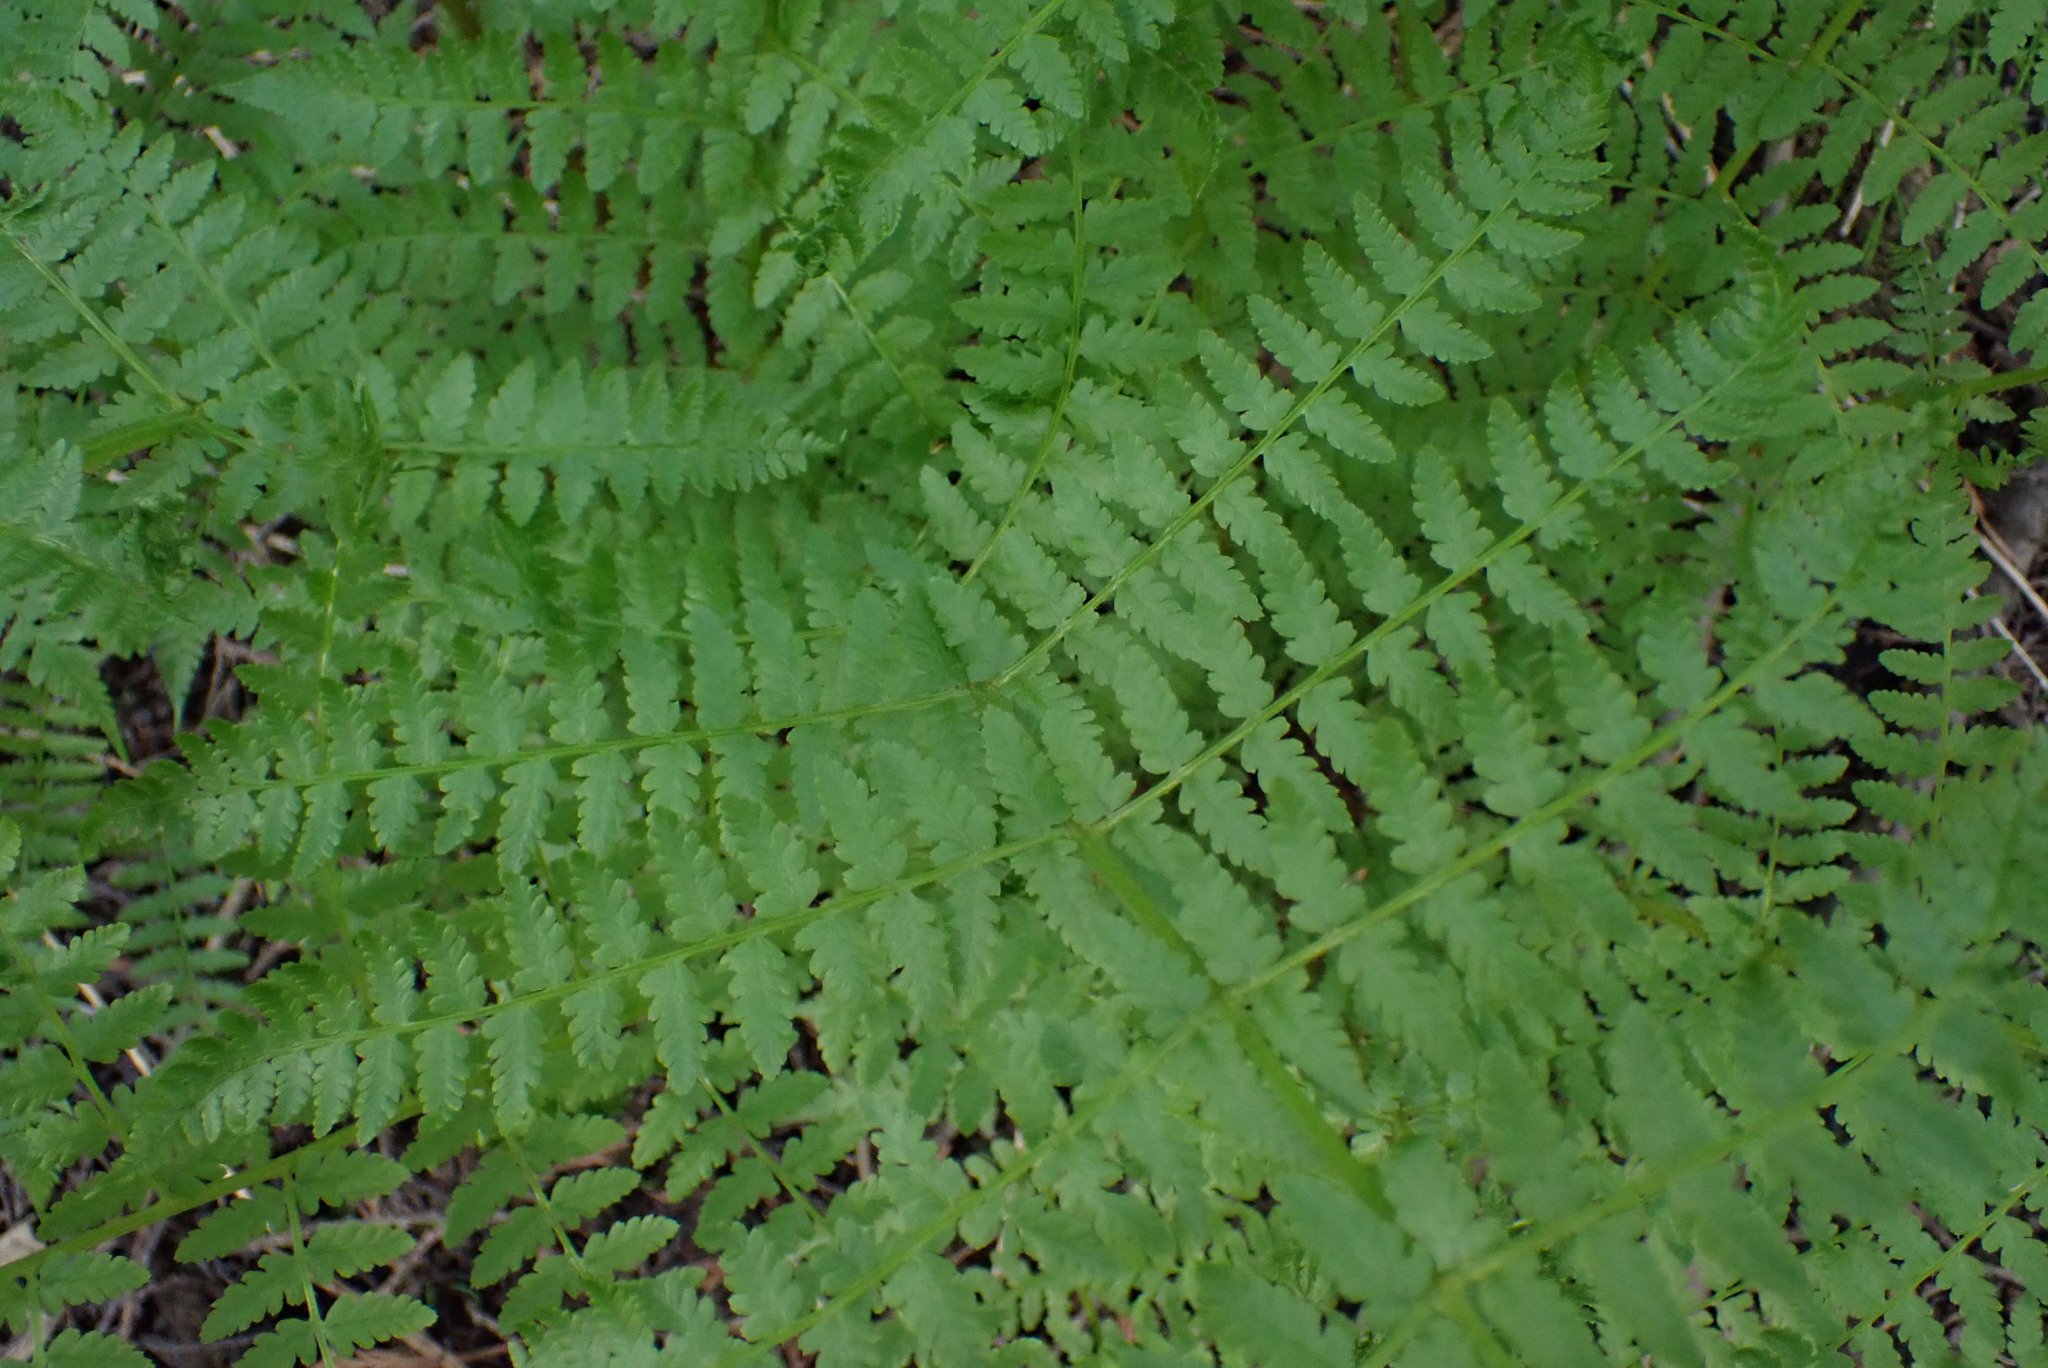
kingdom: Plantae
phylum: Tracheophyta
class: Polypodiopsida
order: Polypodiales
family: Athyriaceae
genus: Athyrium
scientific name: Athyrium filix-femina
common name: Lady fern
